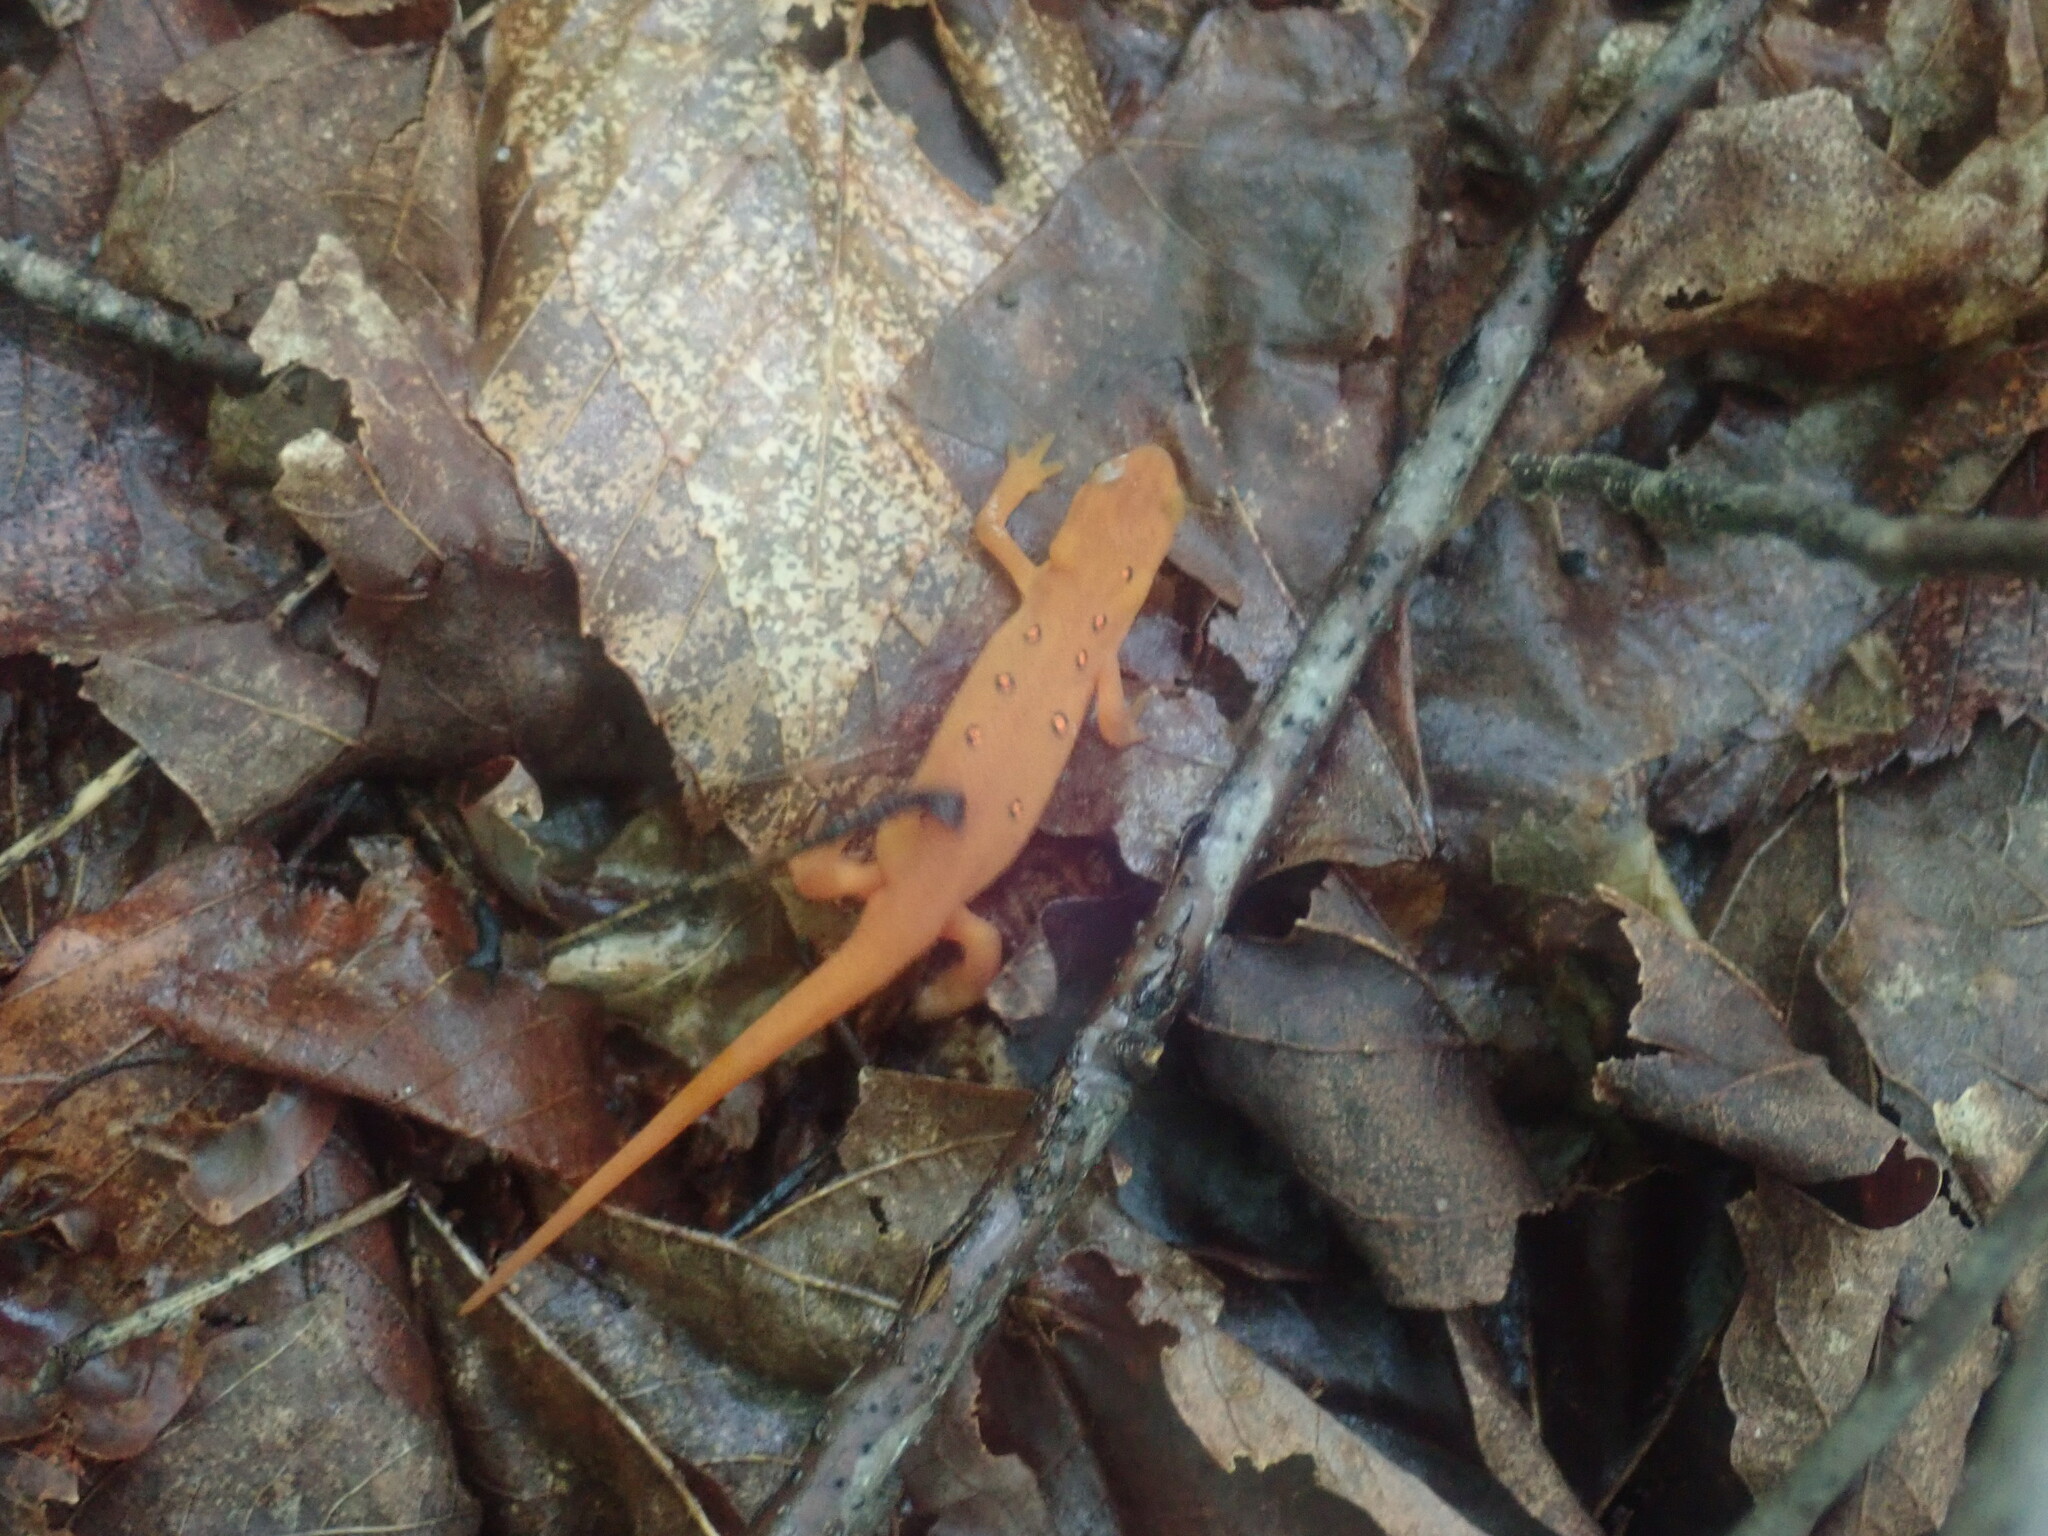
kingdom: Animalia
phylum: Chordata
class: Amphibia
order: Caudata
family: Salamandridae
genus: Notophthalmus
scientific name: Notophthalmus viridescens
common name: Eastern newt
